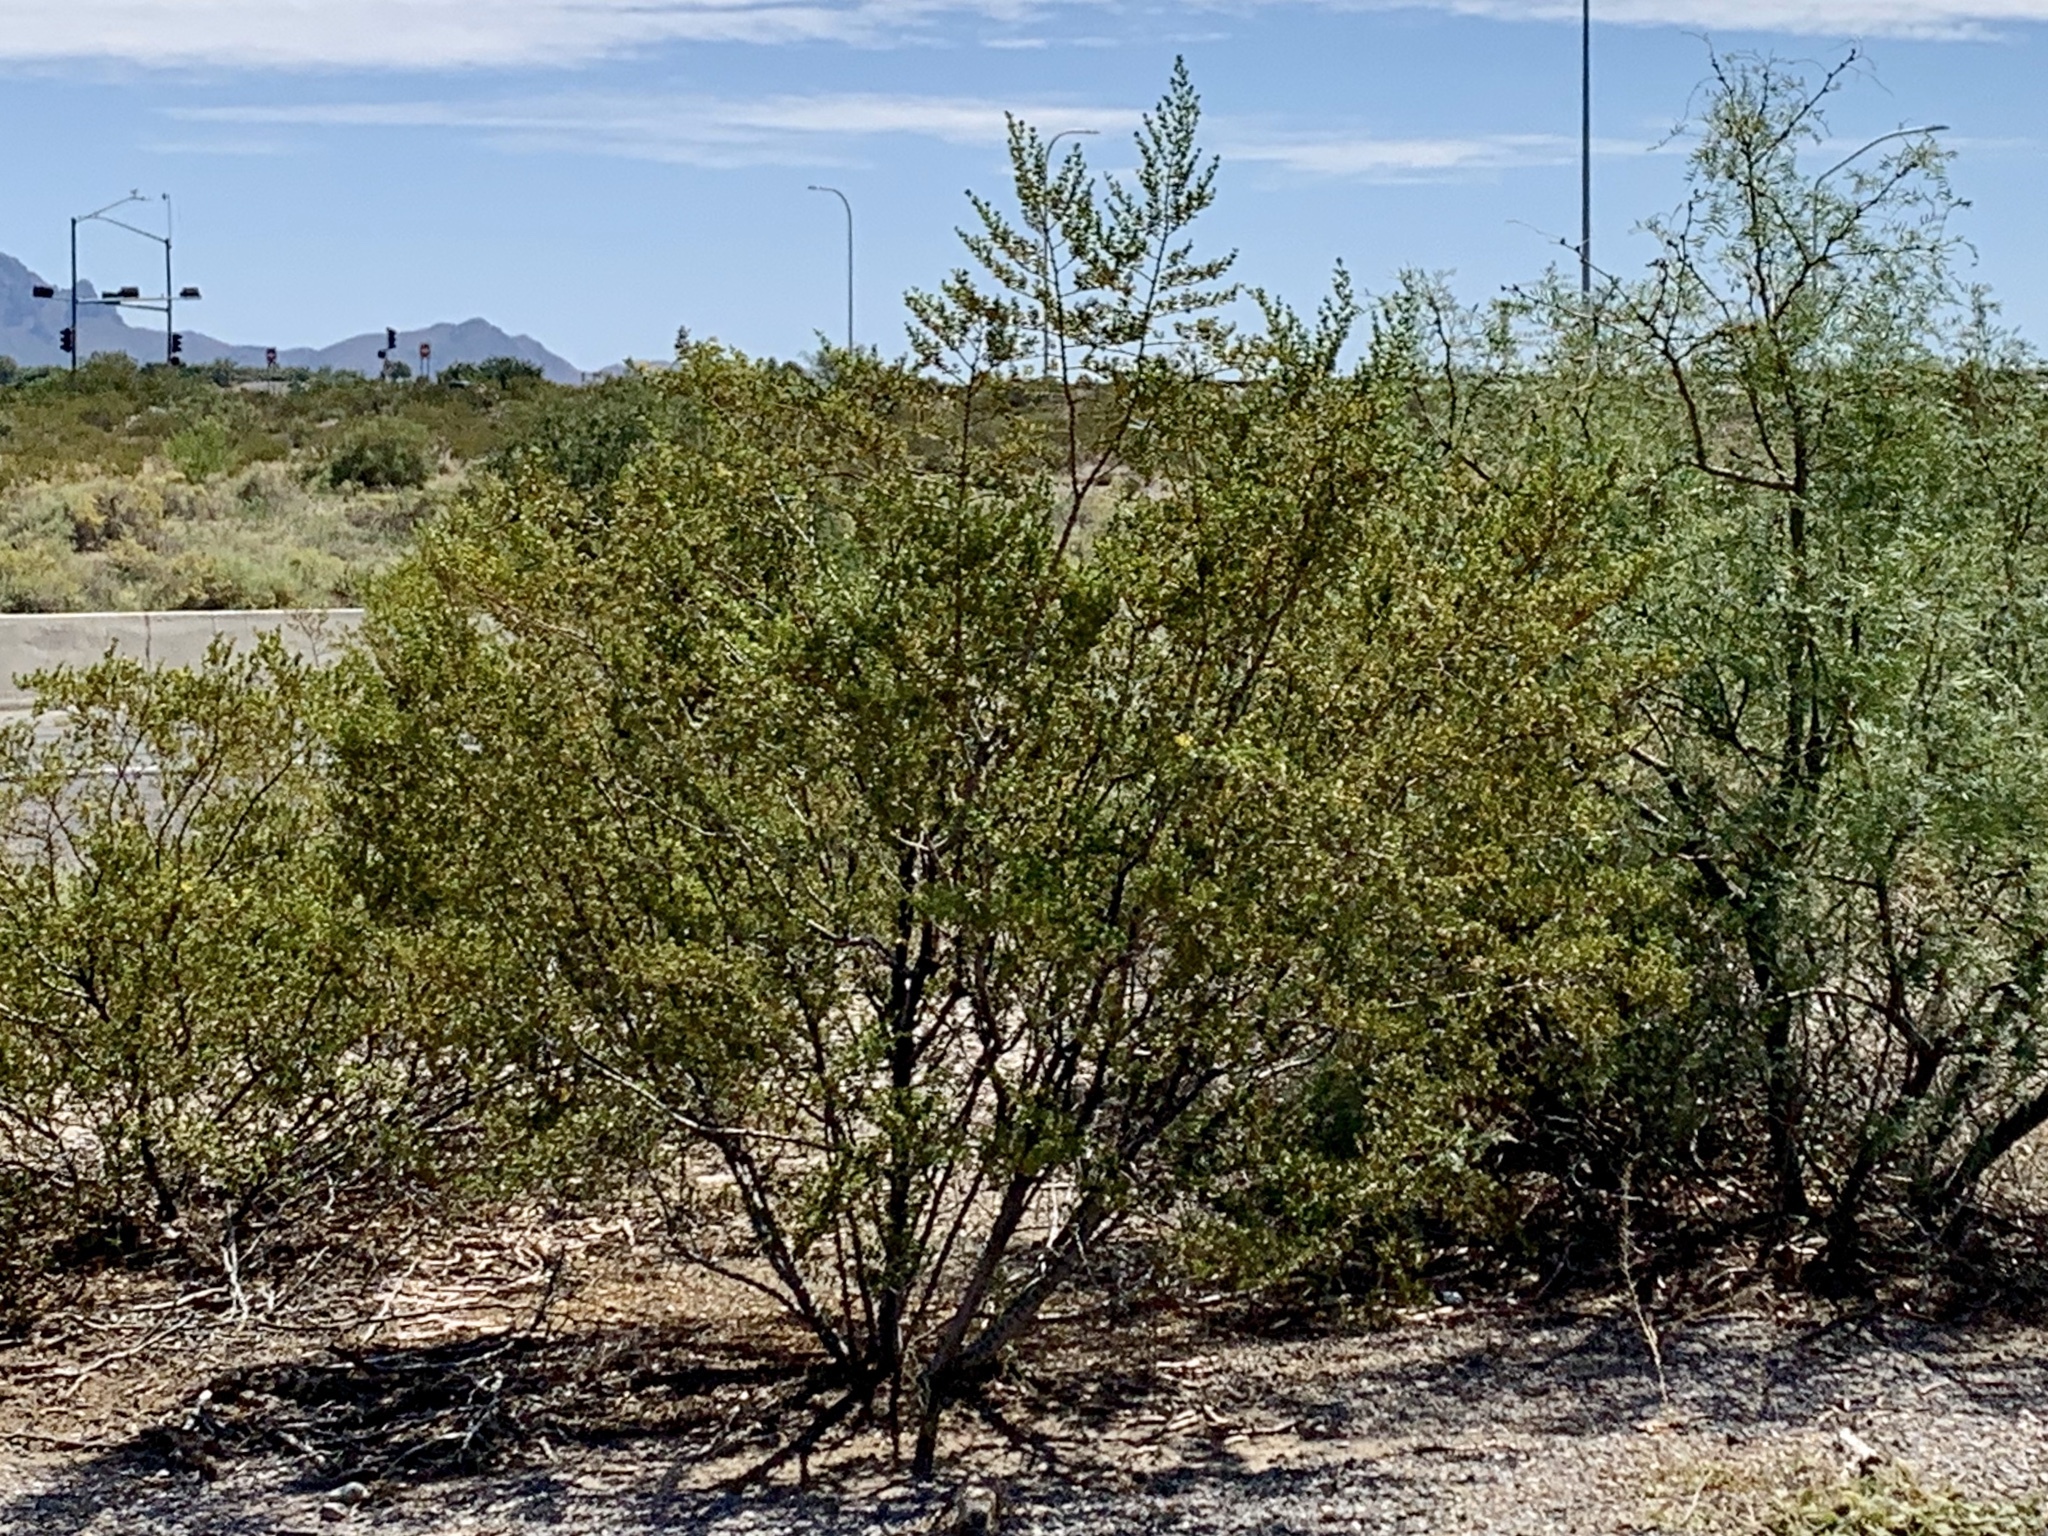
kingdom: Plantae
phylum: Tracheophyta
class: Magnoliopsida
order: Zygophyllales
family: Zygophyllaceae
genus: Larrea
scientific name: Larrea tridentata
